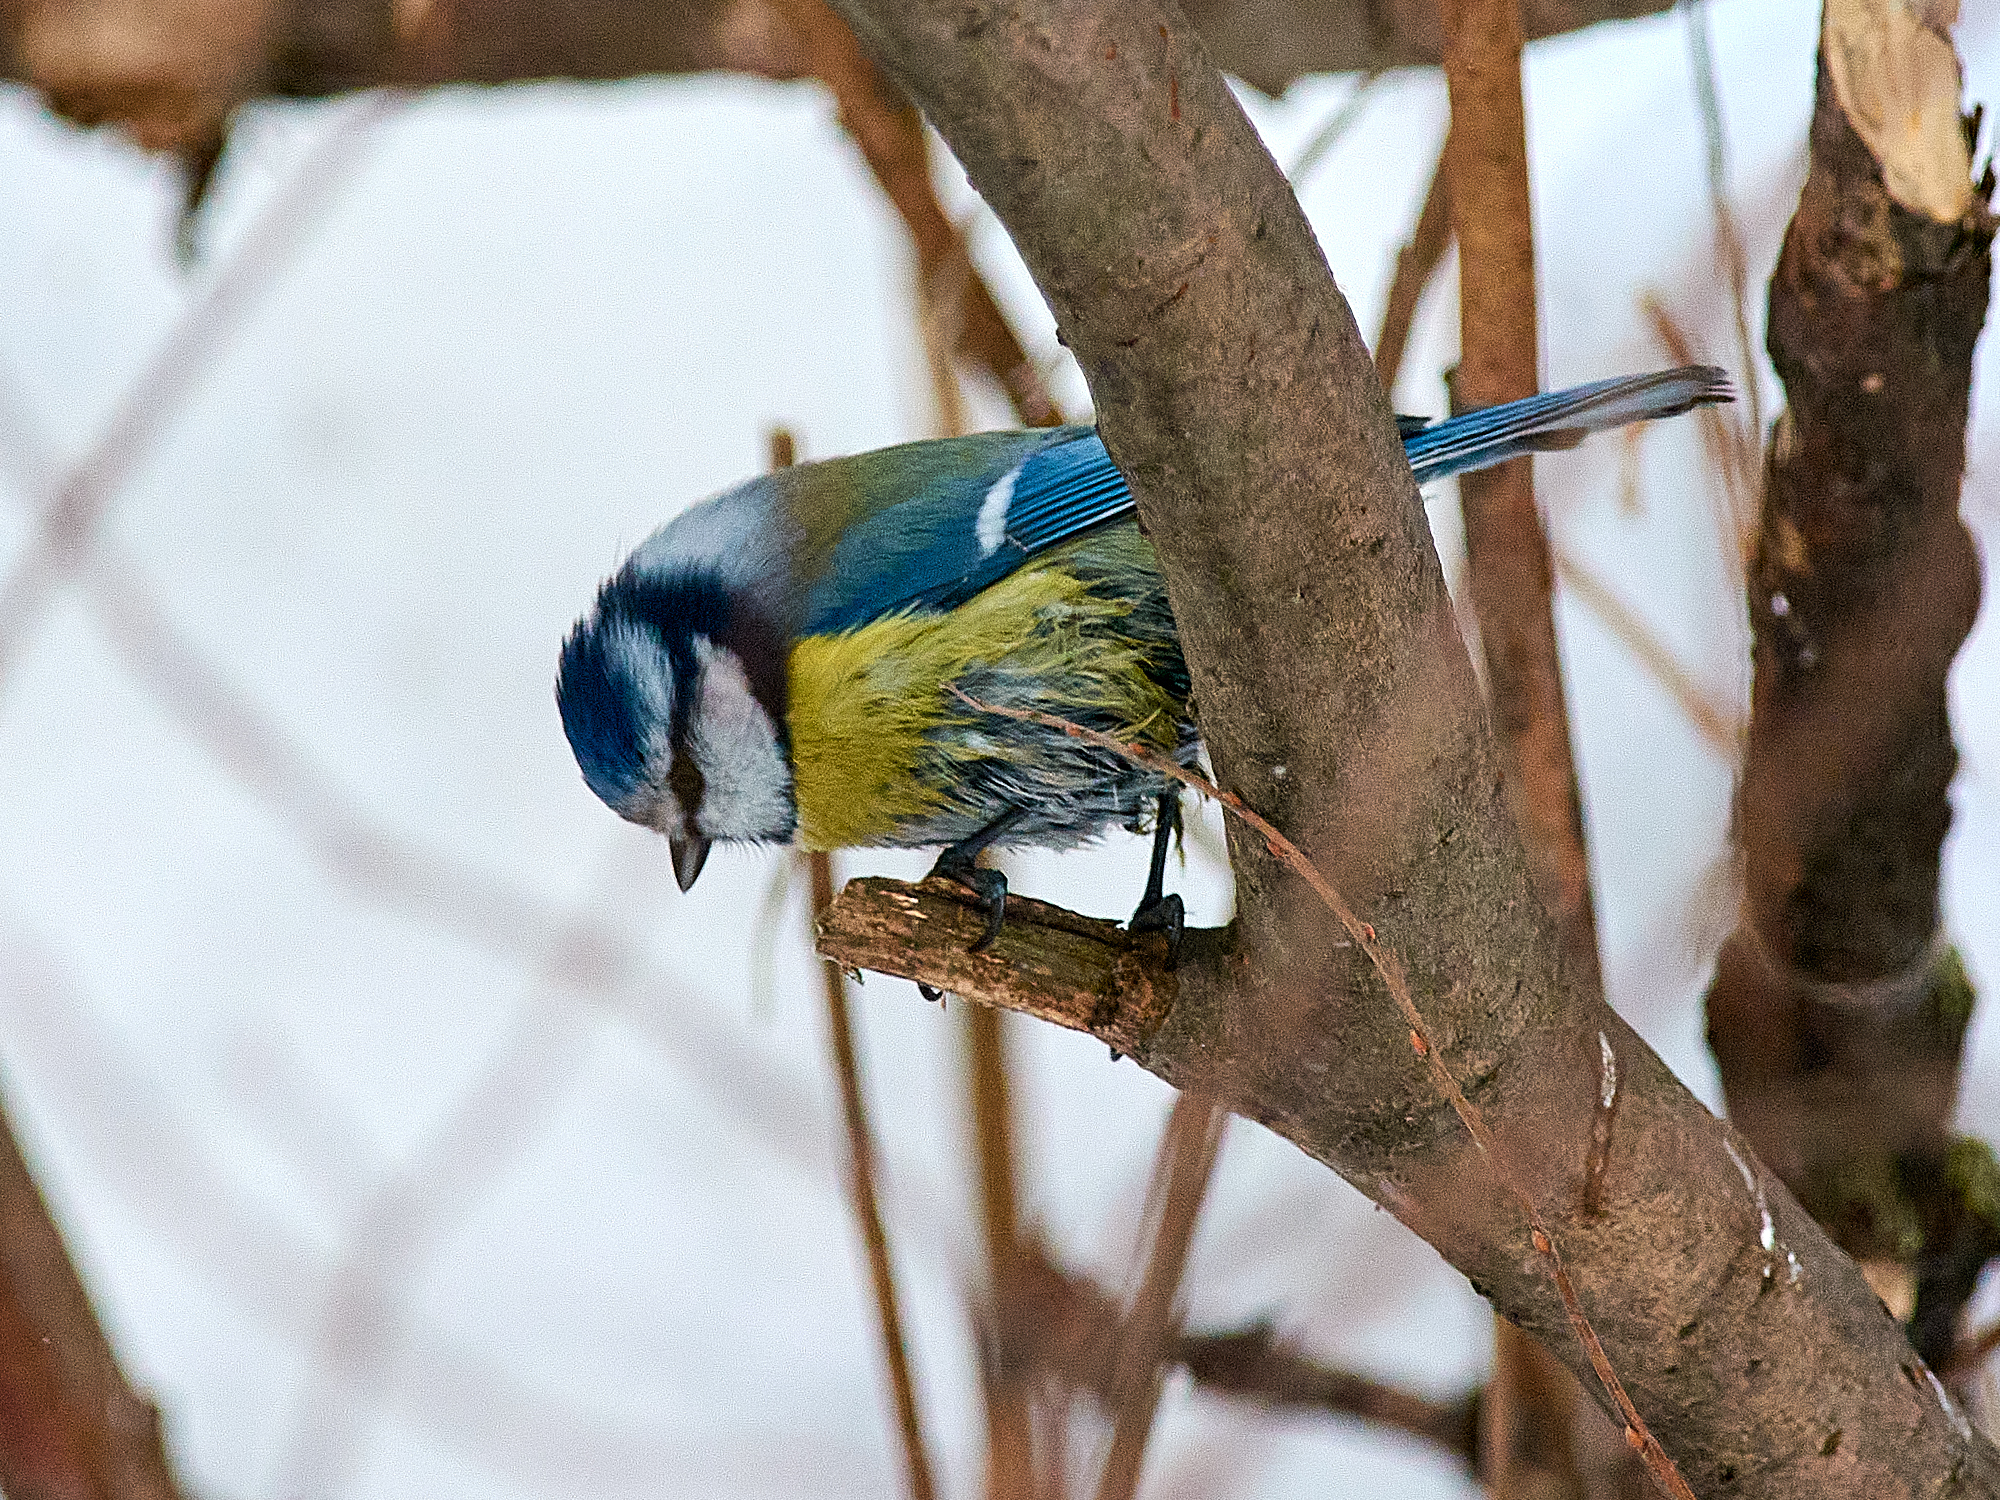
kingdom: Animalia
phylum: Chordata
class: Aves
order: Passeriformes
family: Paridae
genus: Cyanistes
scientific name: Cyanistes caeruleus
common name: Eurasian blue tit
